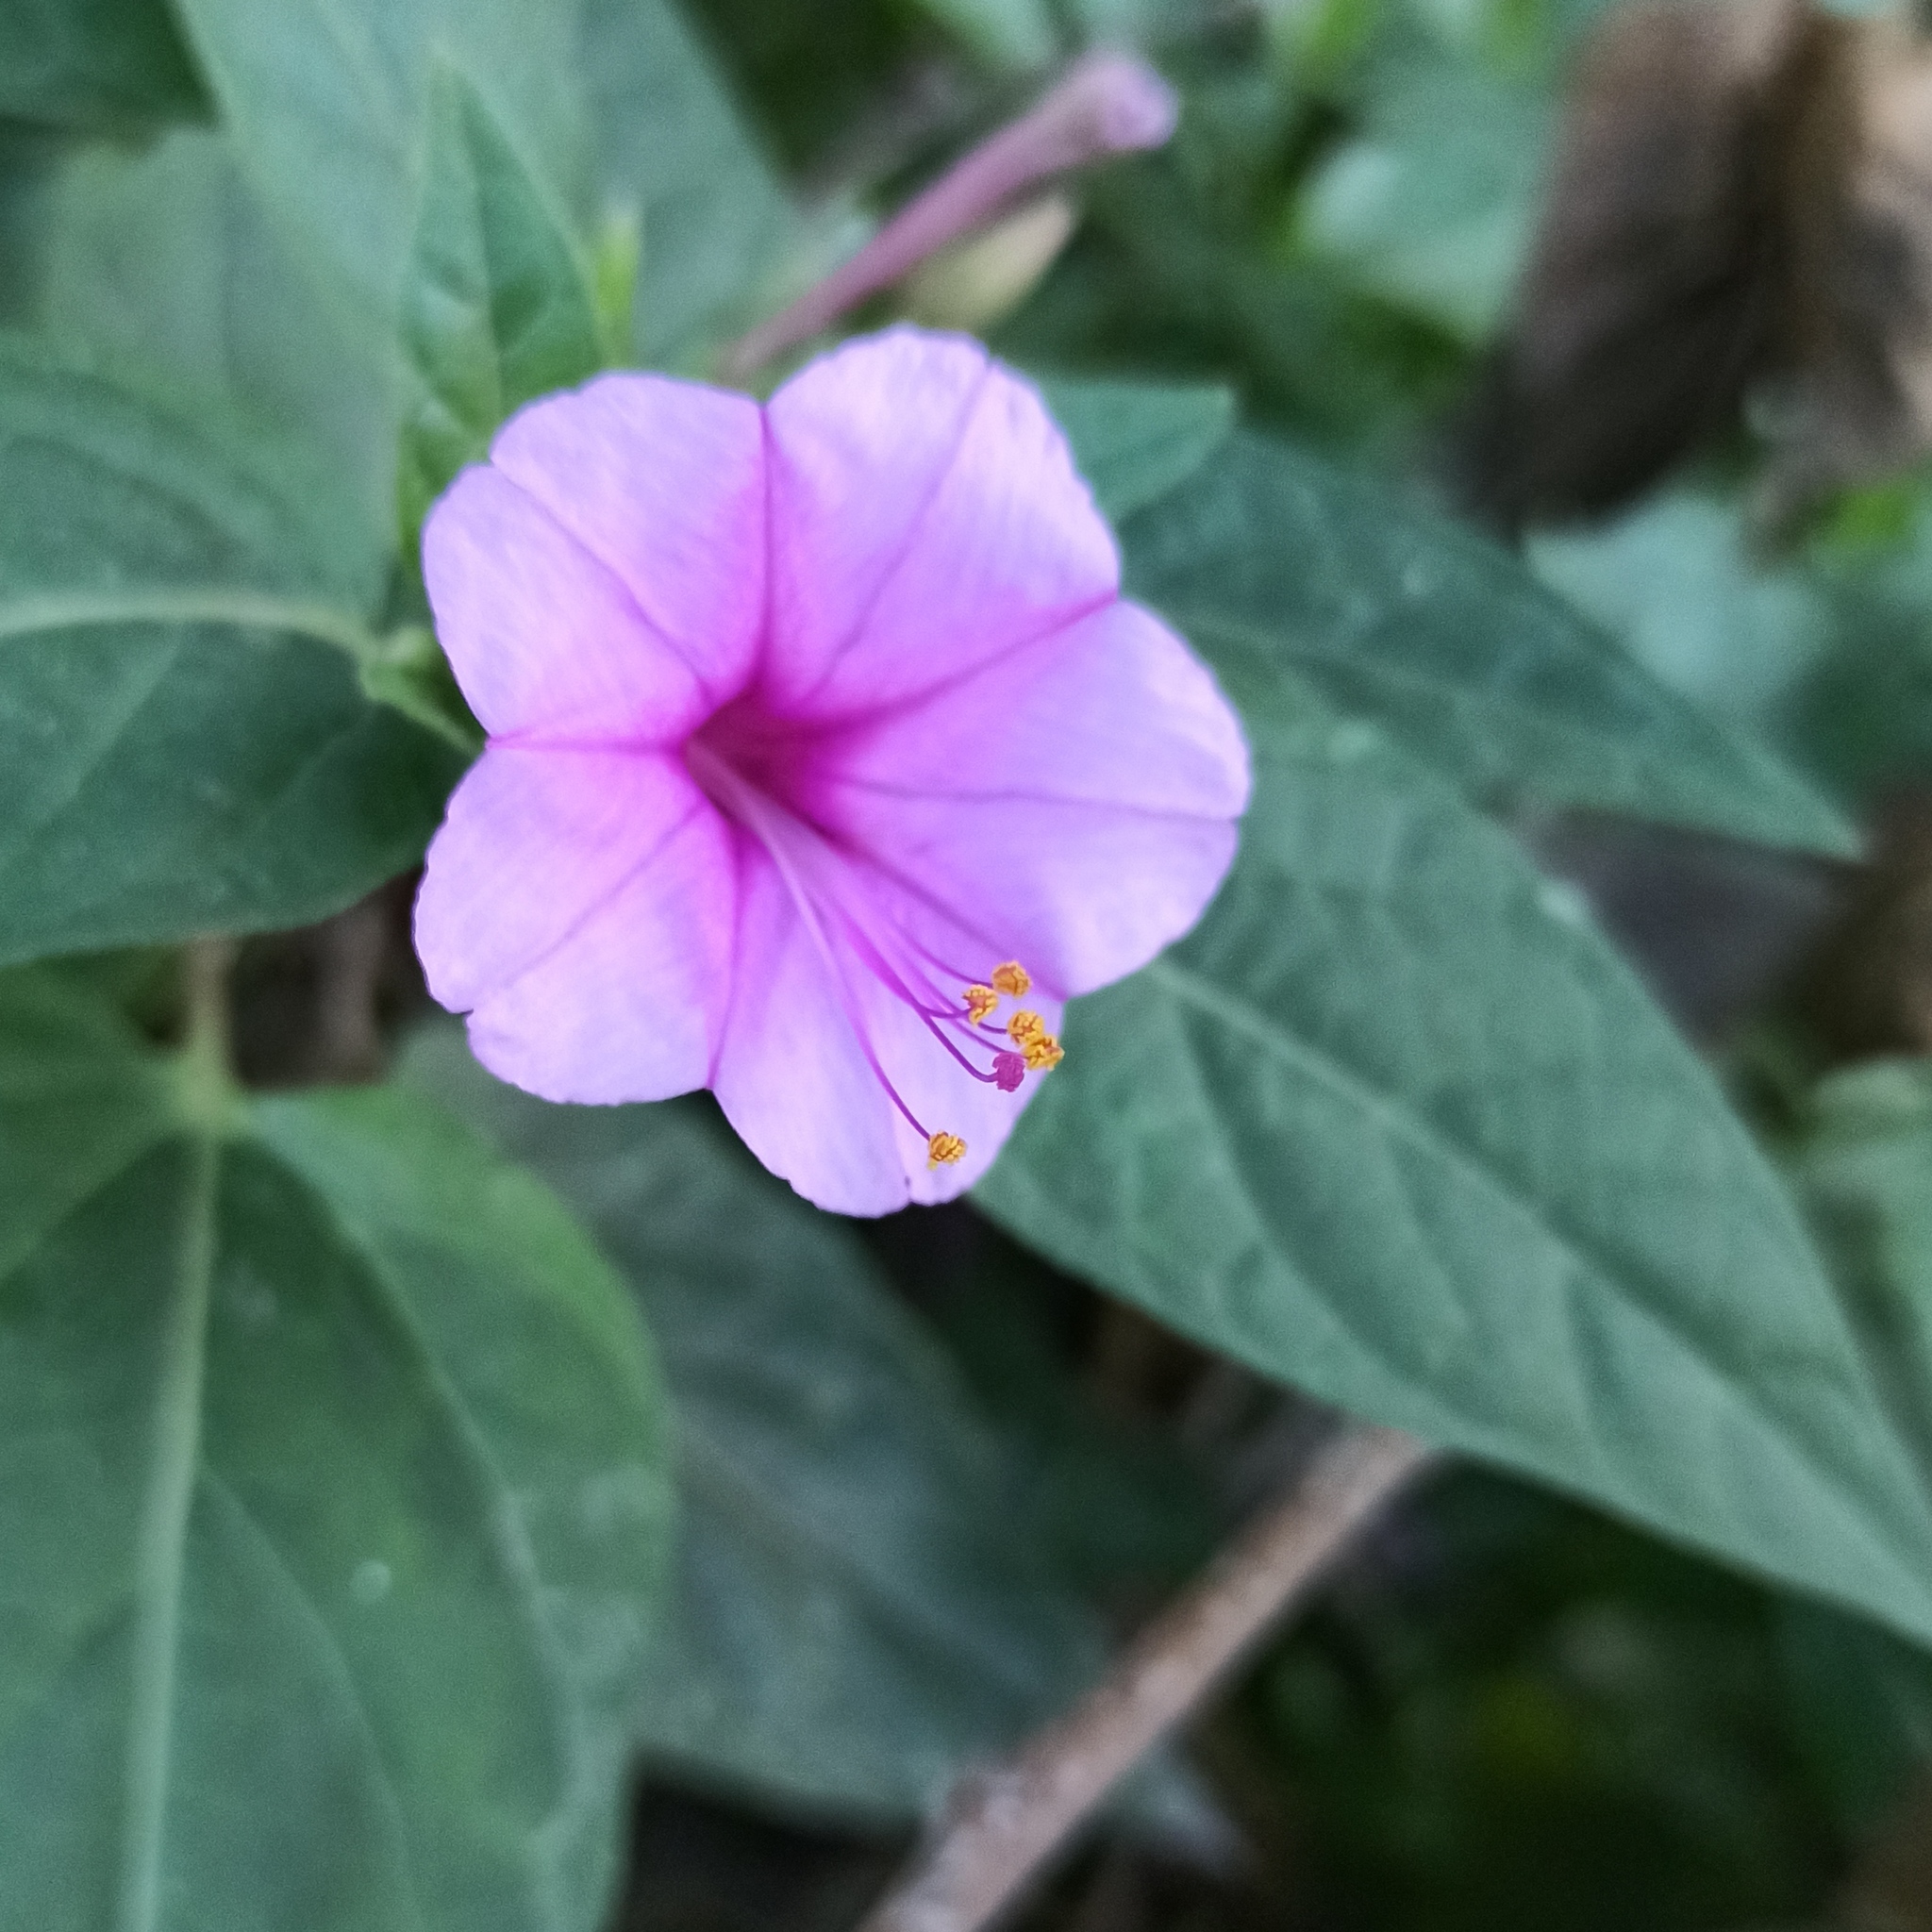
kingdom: Plantae
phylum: Tracheophyta
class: Magnoliopsida
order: Caryophyllales
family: Nyctaginaceae
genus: Mirabilis
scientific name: Mirabilis jalapa
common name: Marvel-of-peru
